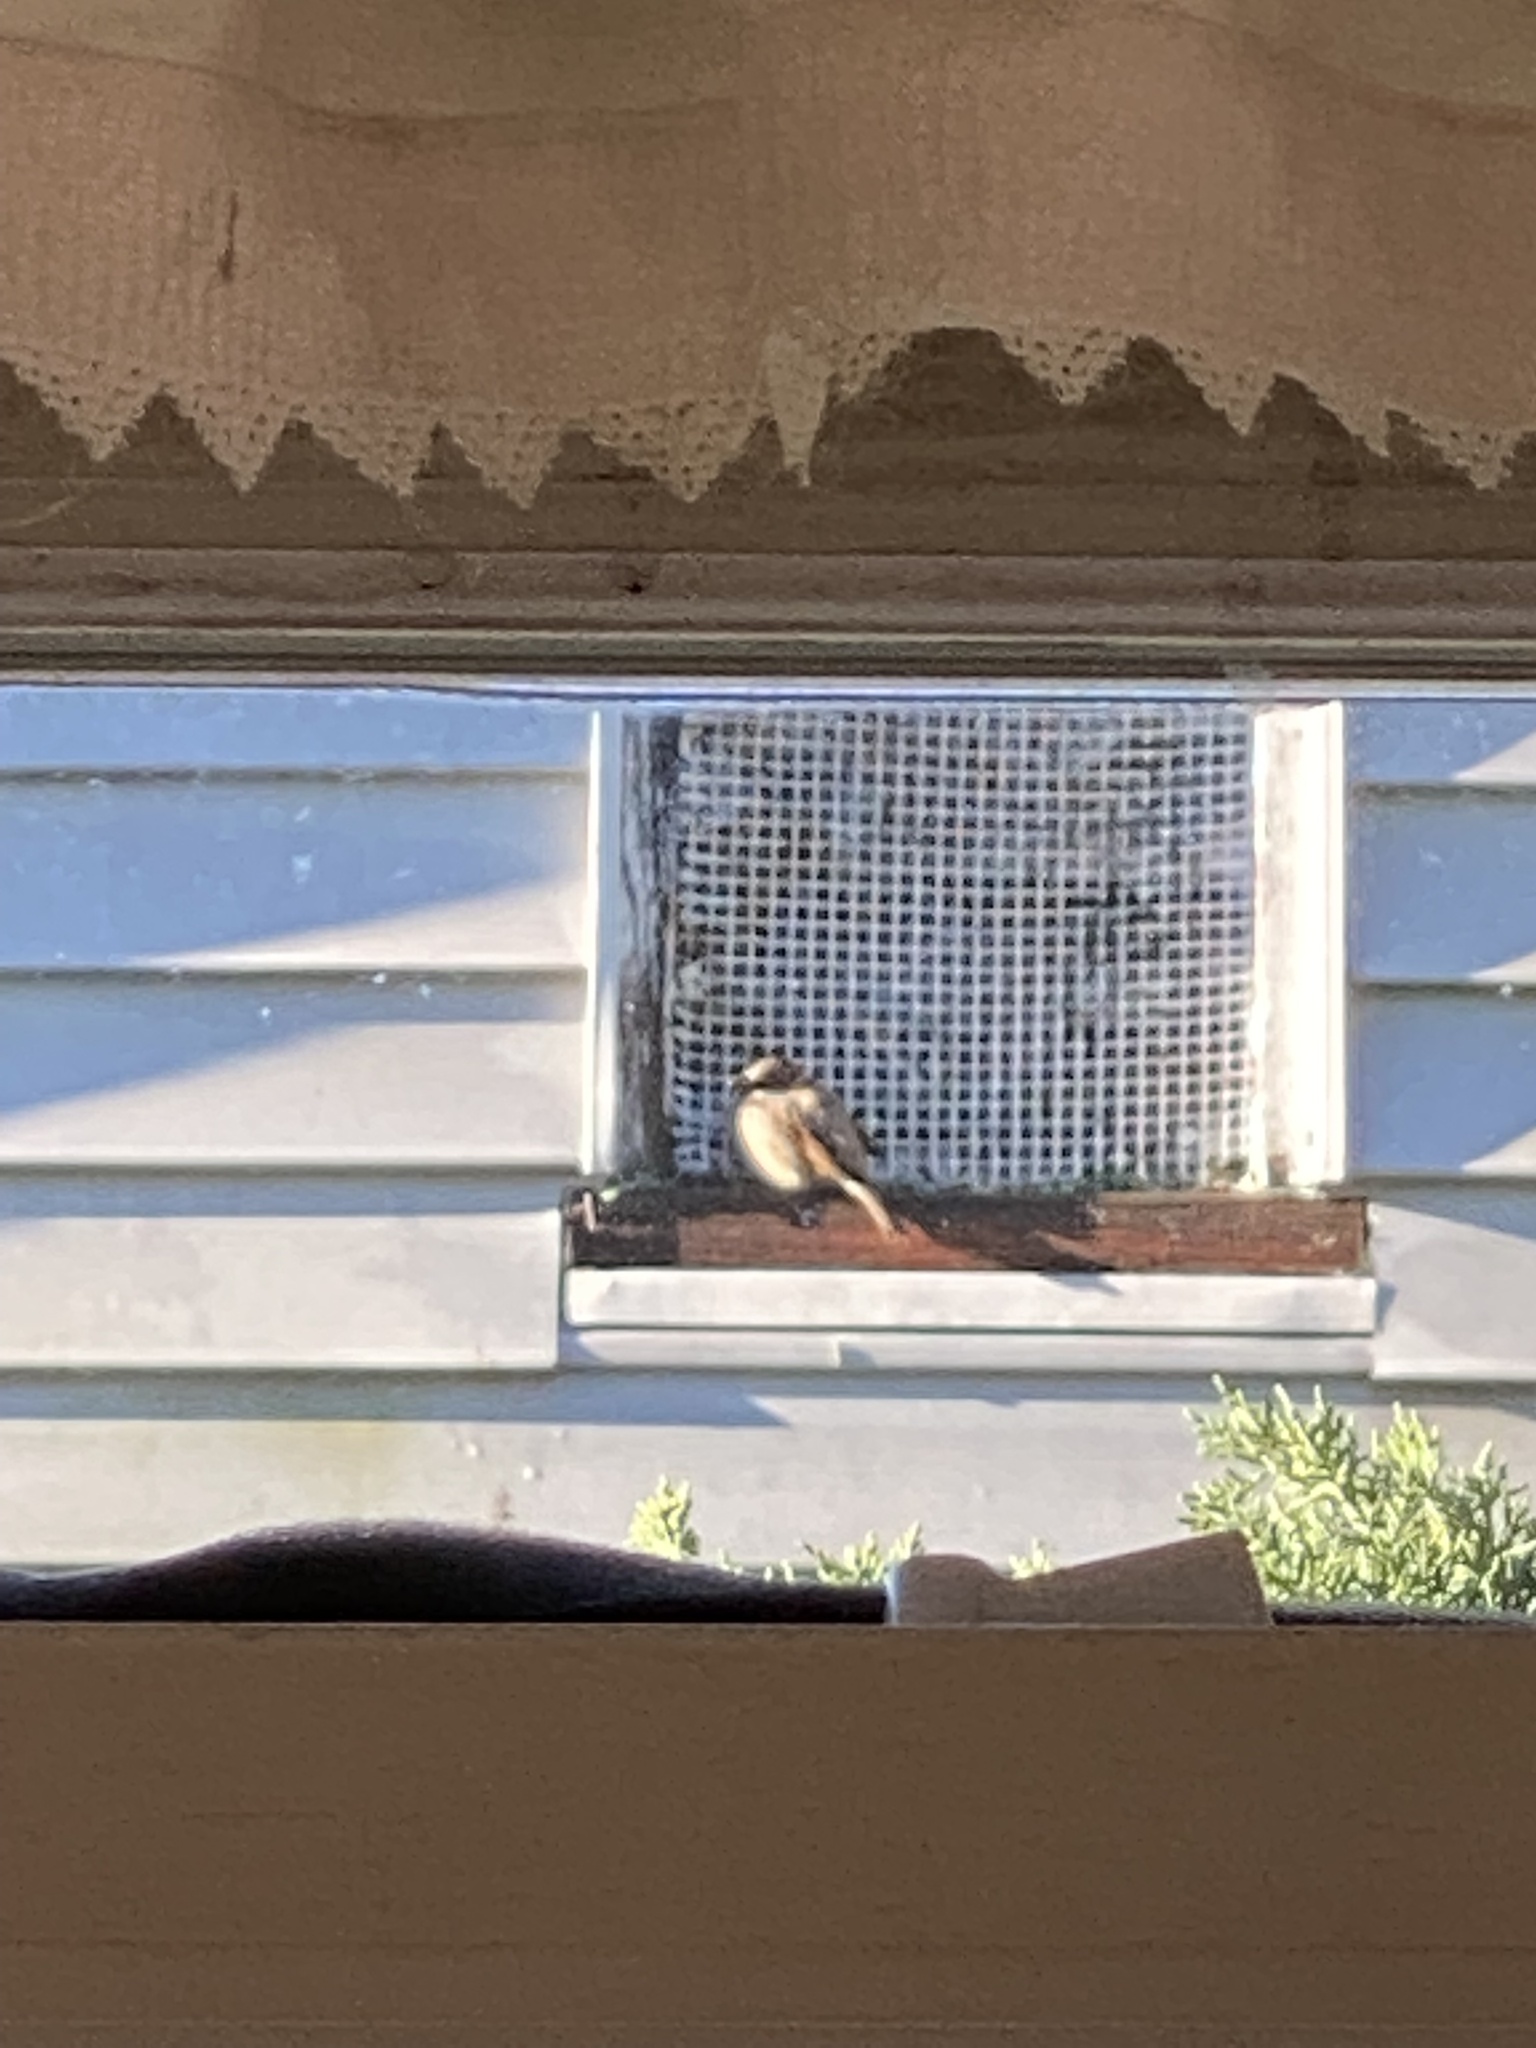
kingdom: Animalia
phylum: Chordata
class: Aves
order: Passeriformes
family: Passeridae
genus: Passer
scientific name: Passer domesticus
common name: House sparrow
